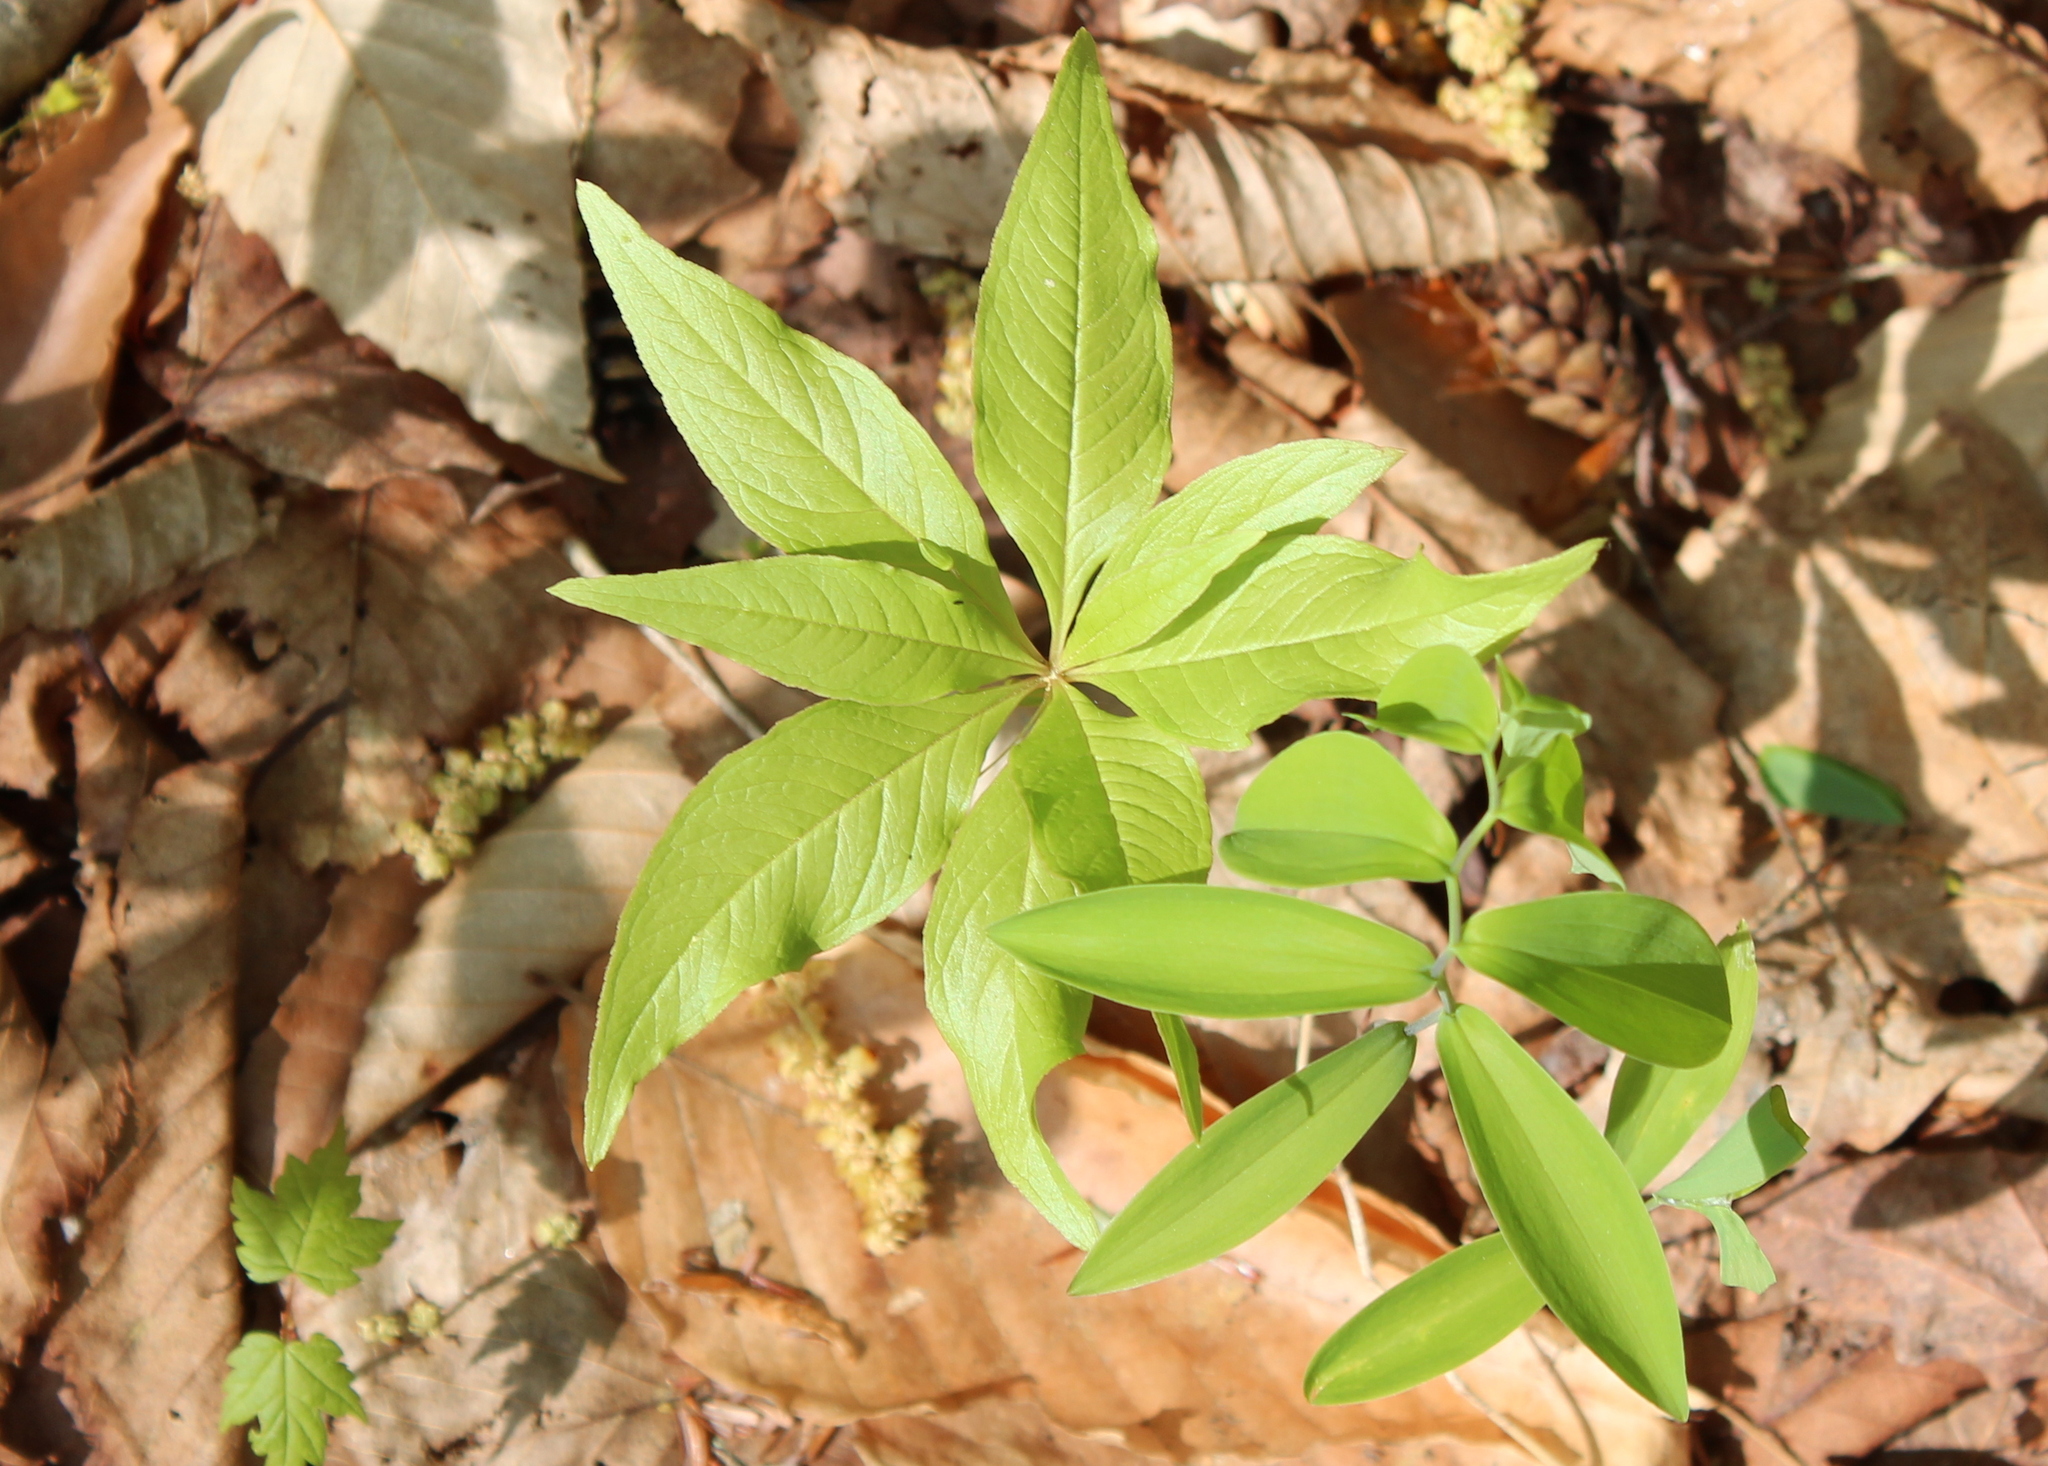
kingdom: Plantae
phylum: Tracheophyta
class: Magnoliopsida
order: Ericales
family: Primulaceae
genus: Lysimachia
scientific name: Lysimachia borealis
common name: American starflower
